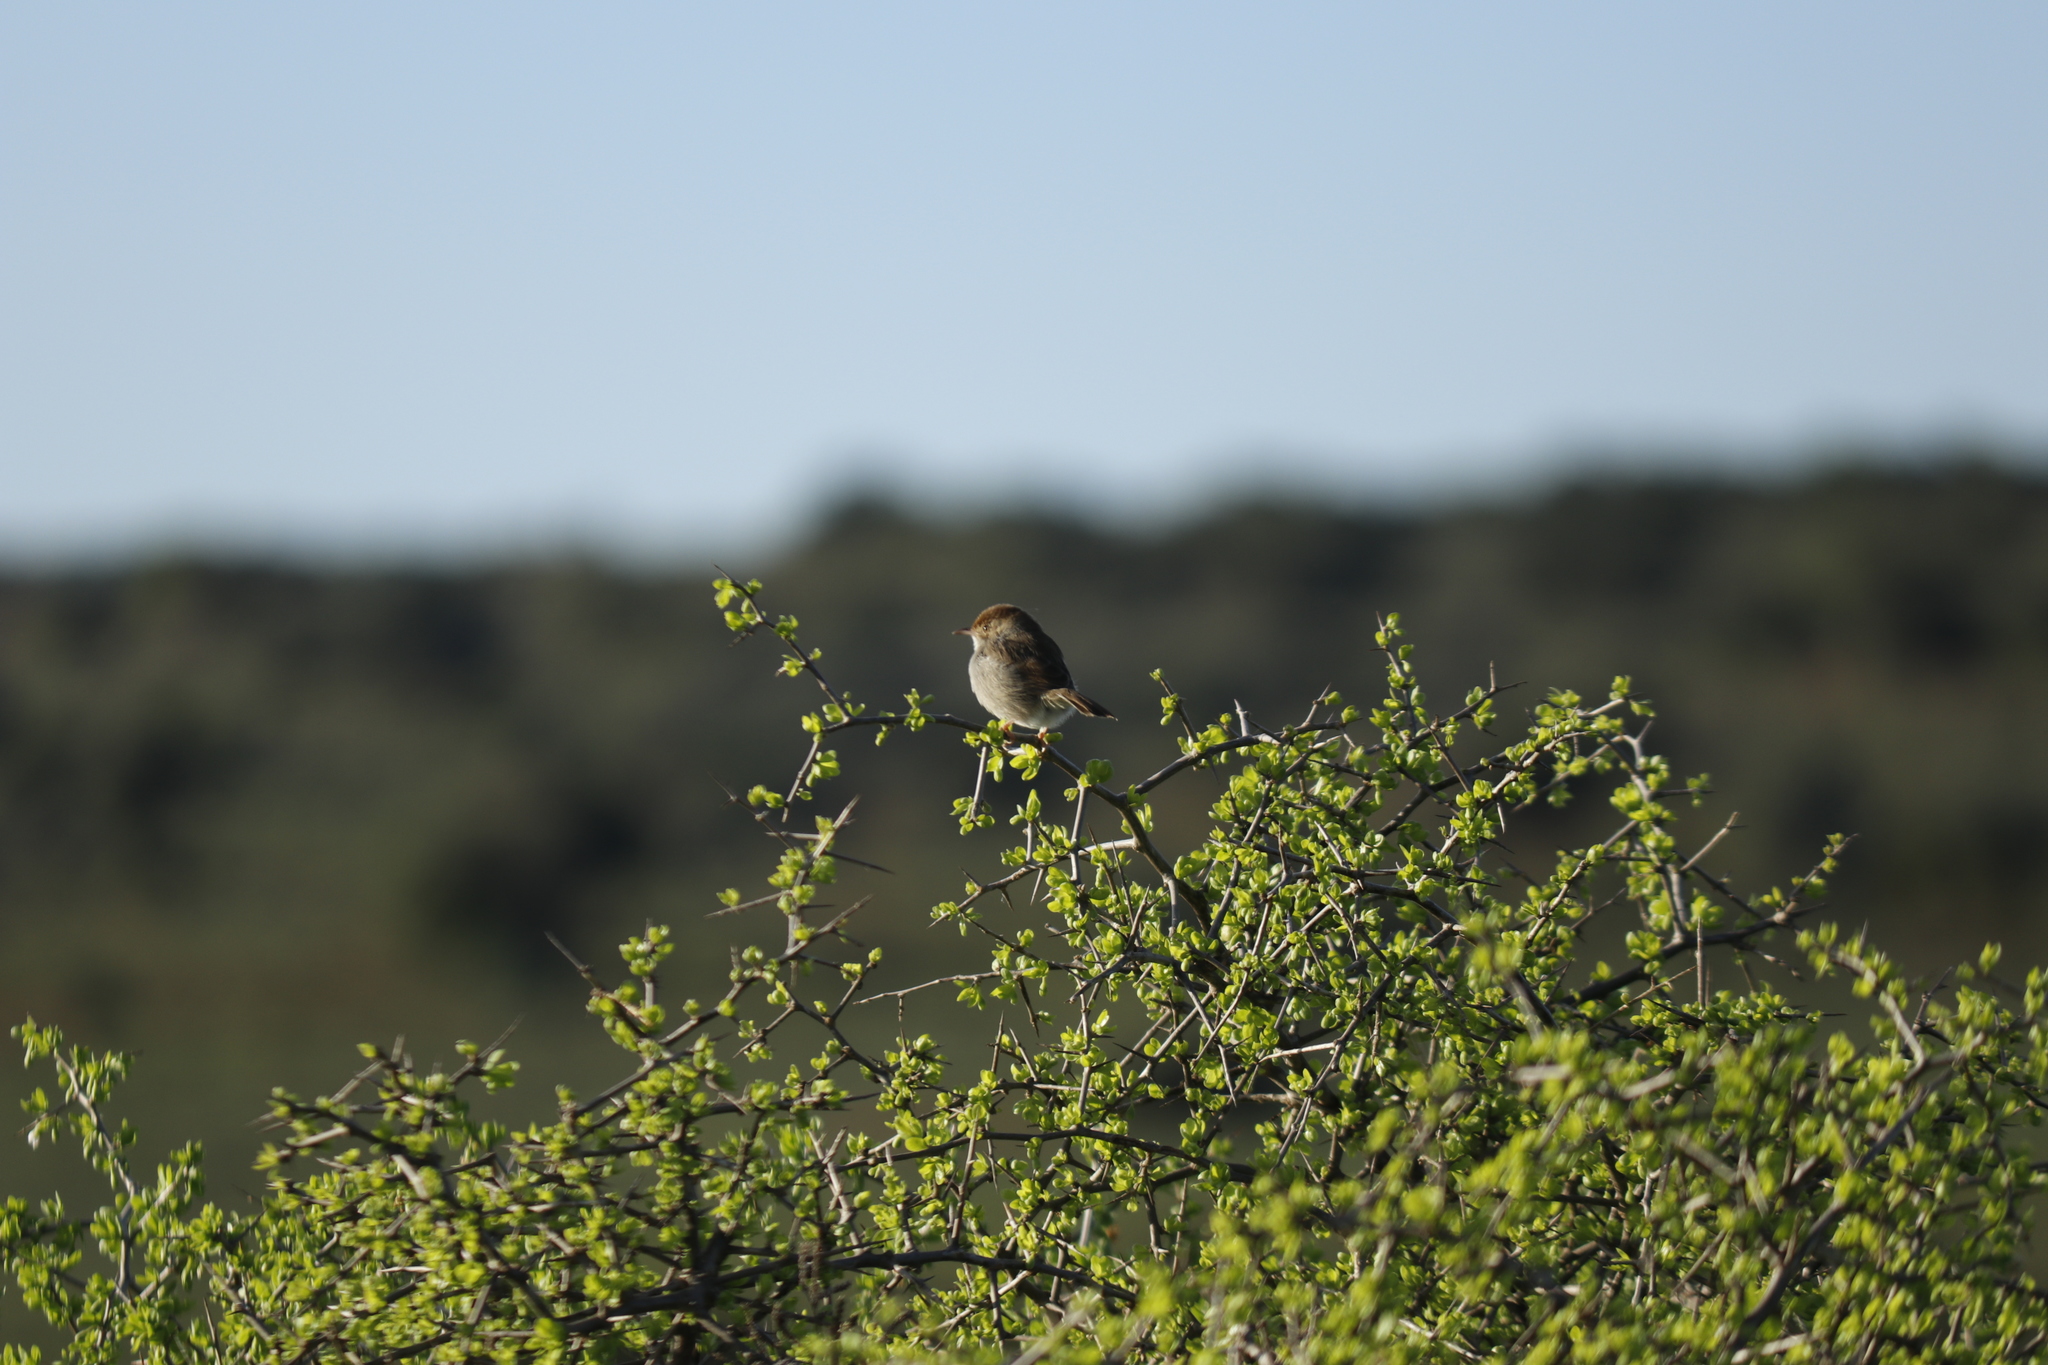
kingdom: Animalia
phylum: Chordata
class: Aves
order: Passeriformes
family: Cisticolidae
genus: Cisticola
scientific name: Cisticola fulvicapilla
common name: Neddicky
